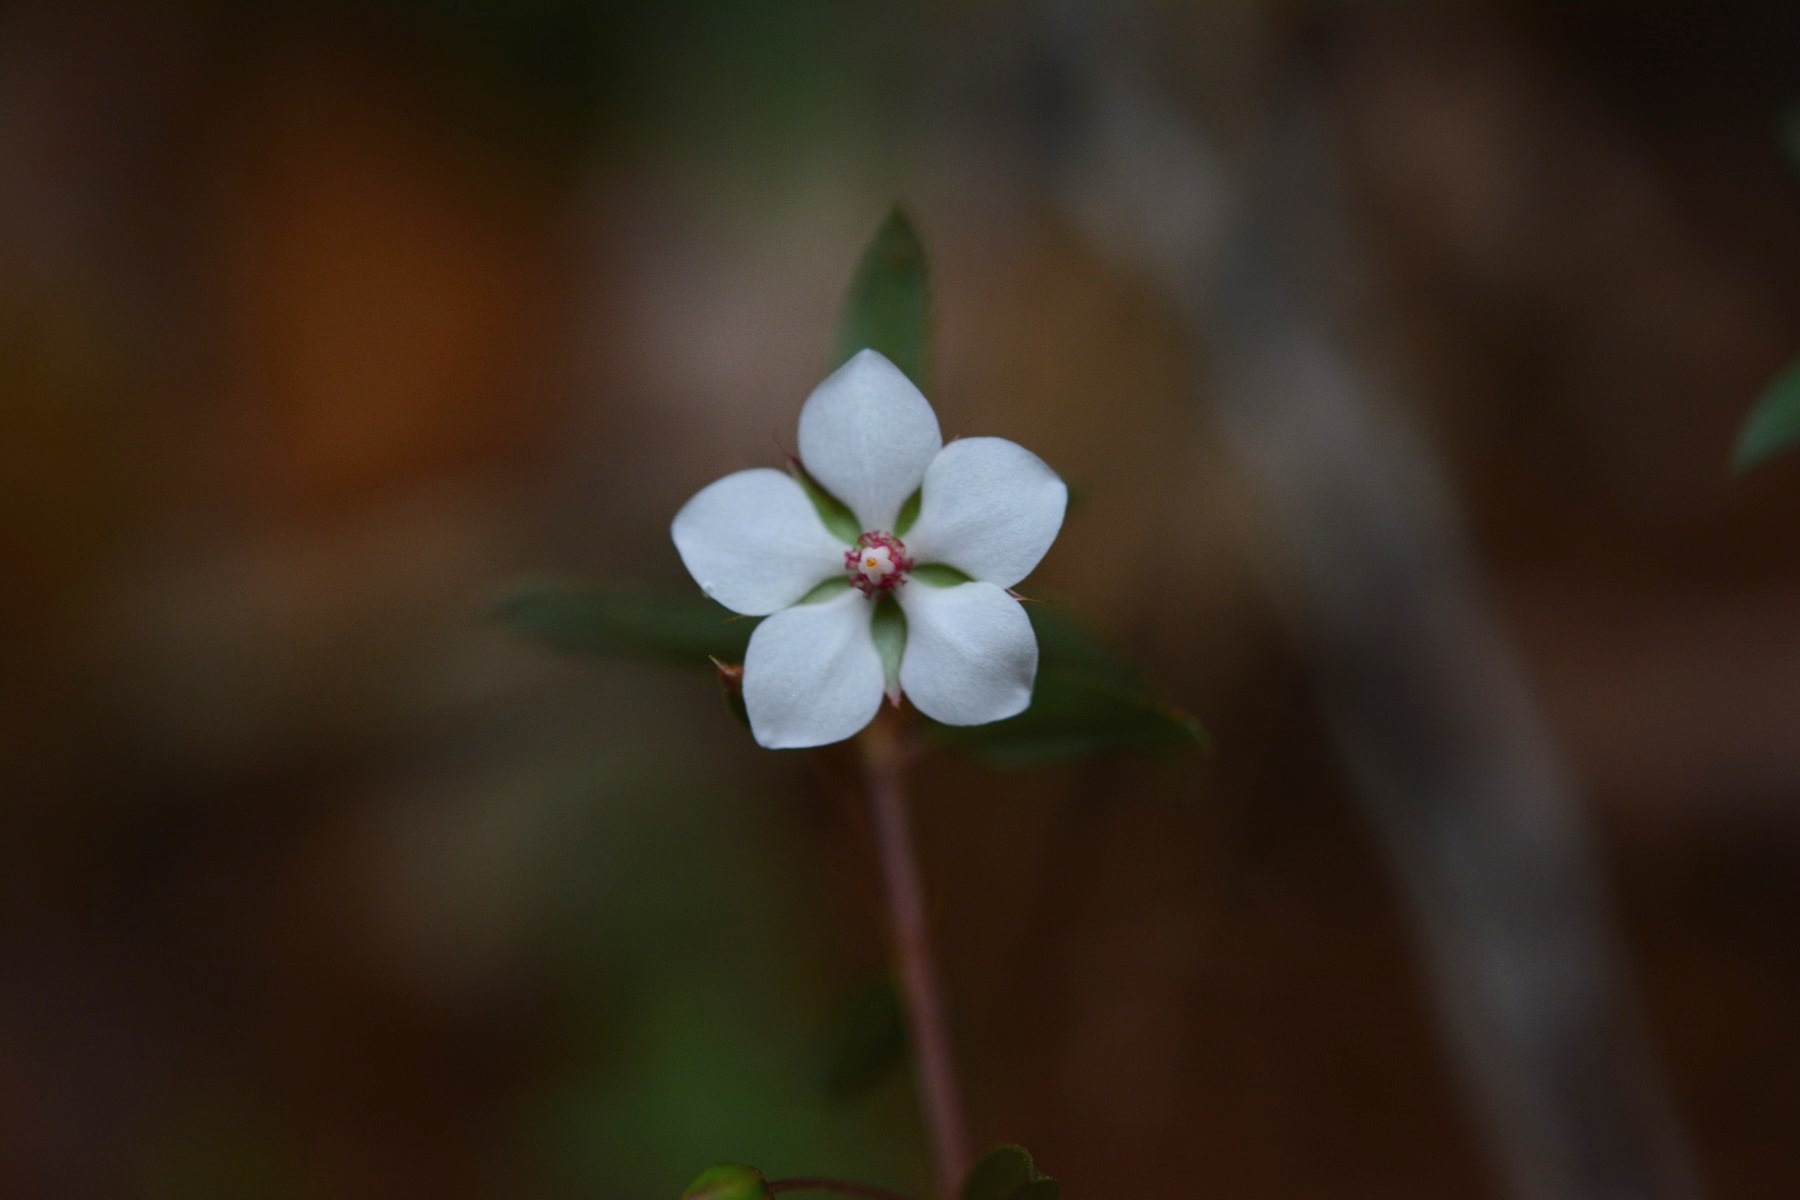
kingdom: Plantae
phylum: Tracheophyta
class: Magnoliopsida
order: Malpighiales
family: Ochnaceae
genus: Sauvagesia
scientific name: Sauvagesia erecta
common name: Creole tea
